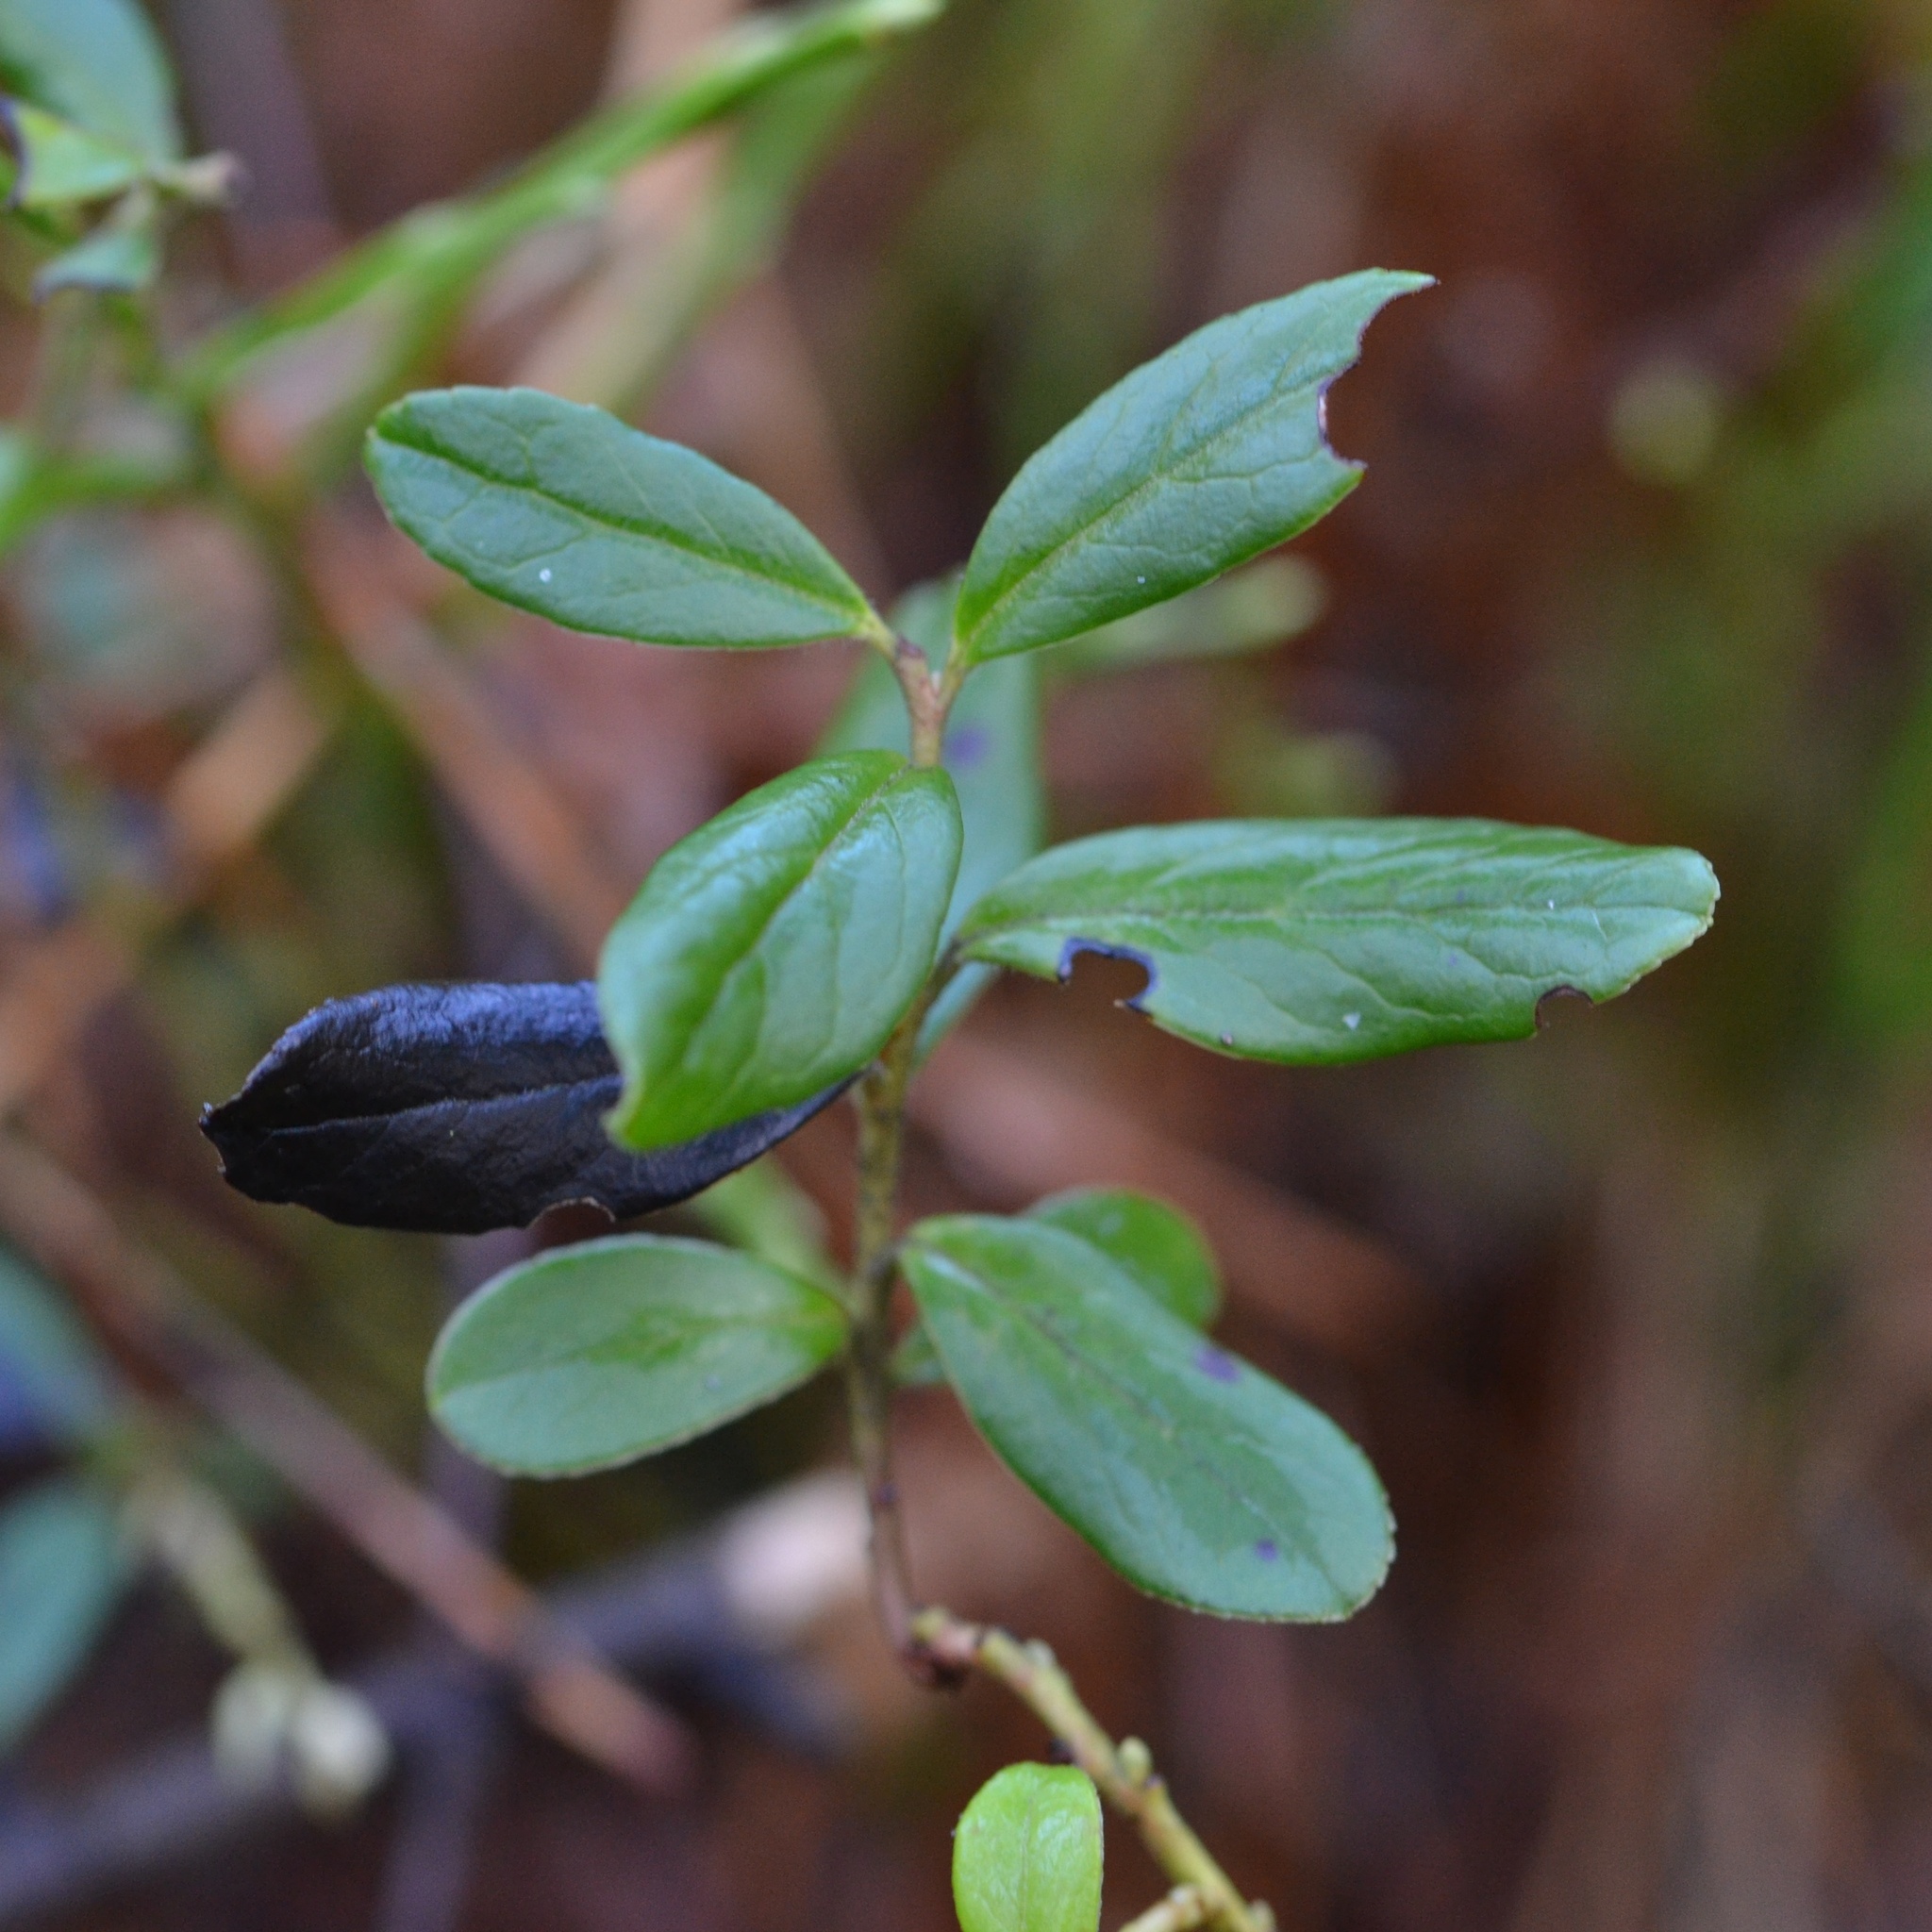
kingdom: Plantae
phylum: Tracheophyta
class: Magnoliopsida
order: Ericales
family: Ericaceae
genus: Vaccinium
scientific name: Vaccinium vitis-idaea
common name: Cowberry
